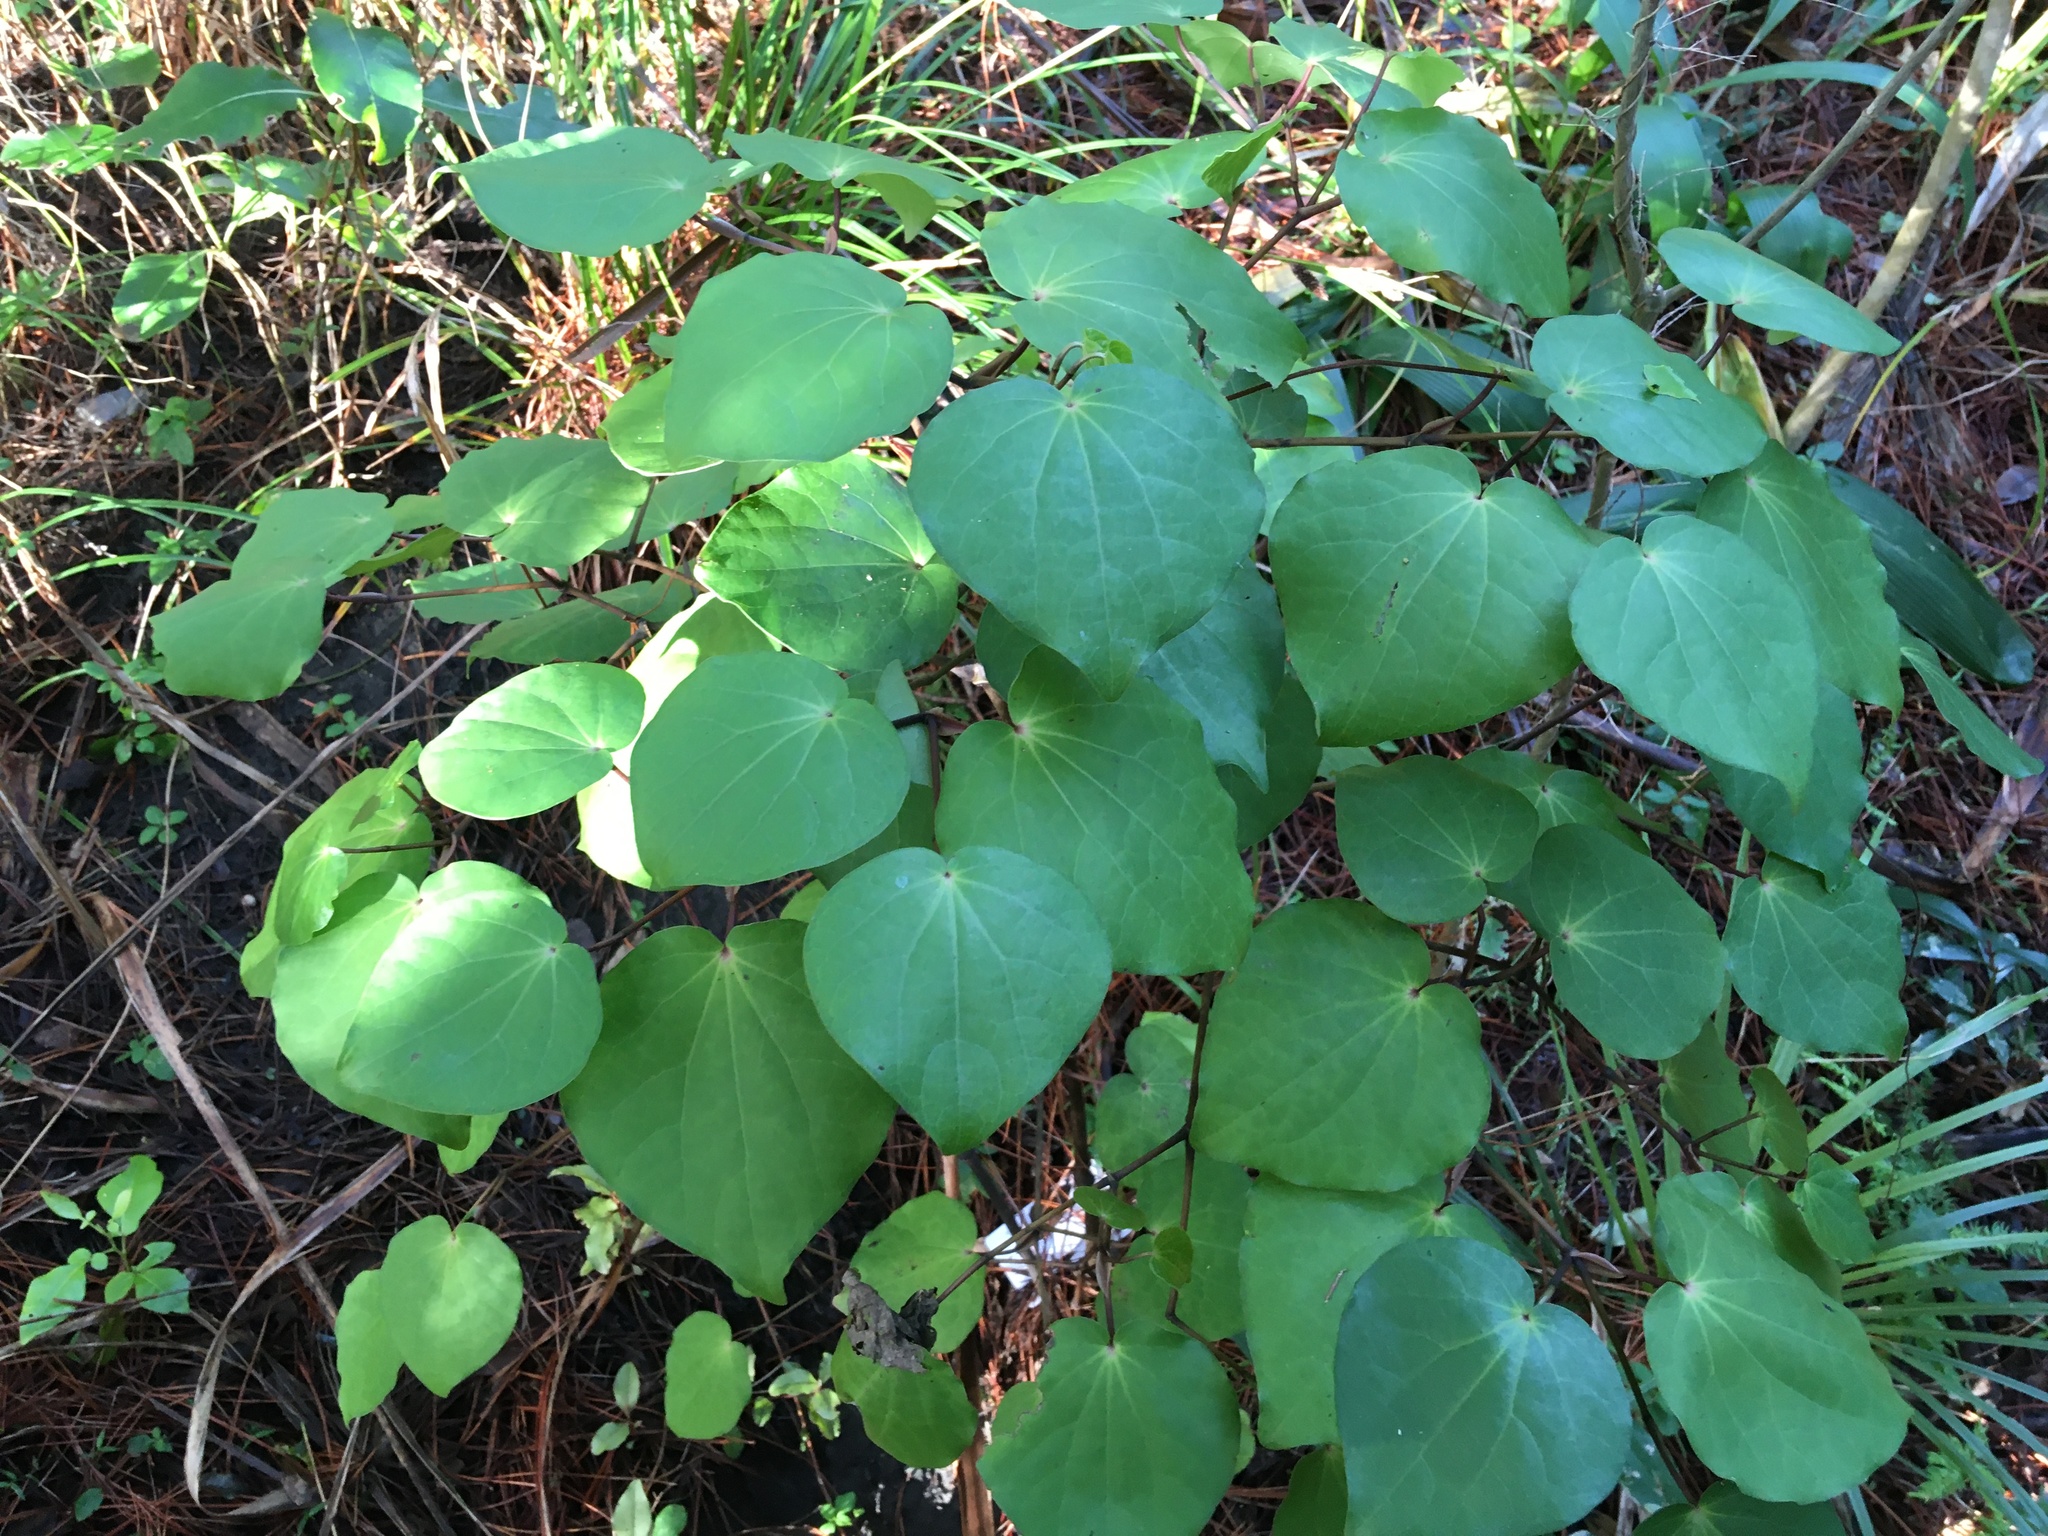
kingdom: Plantae
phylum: Tracheophyta
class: Magnoliopsida
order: Piperales
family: Piperaceae
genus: Macropiper
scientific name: Macropiper excelsum
